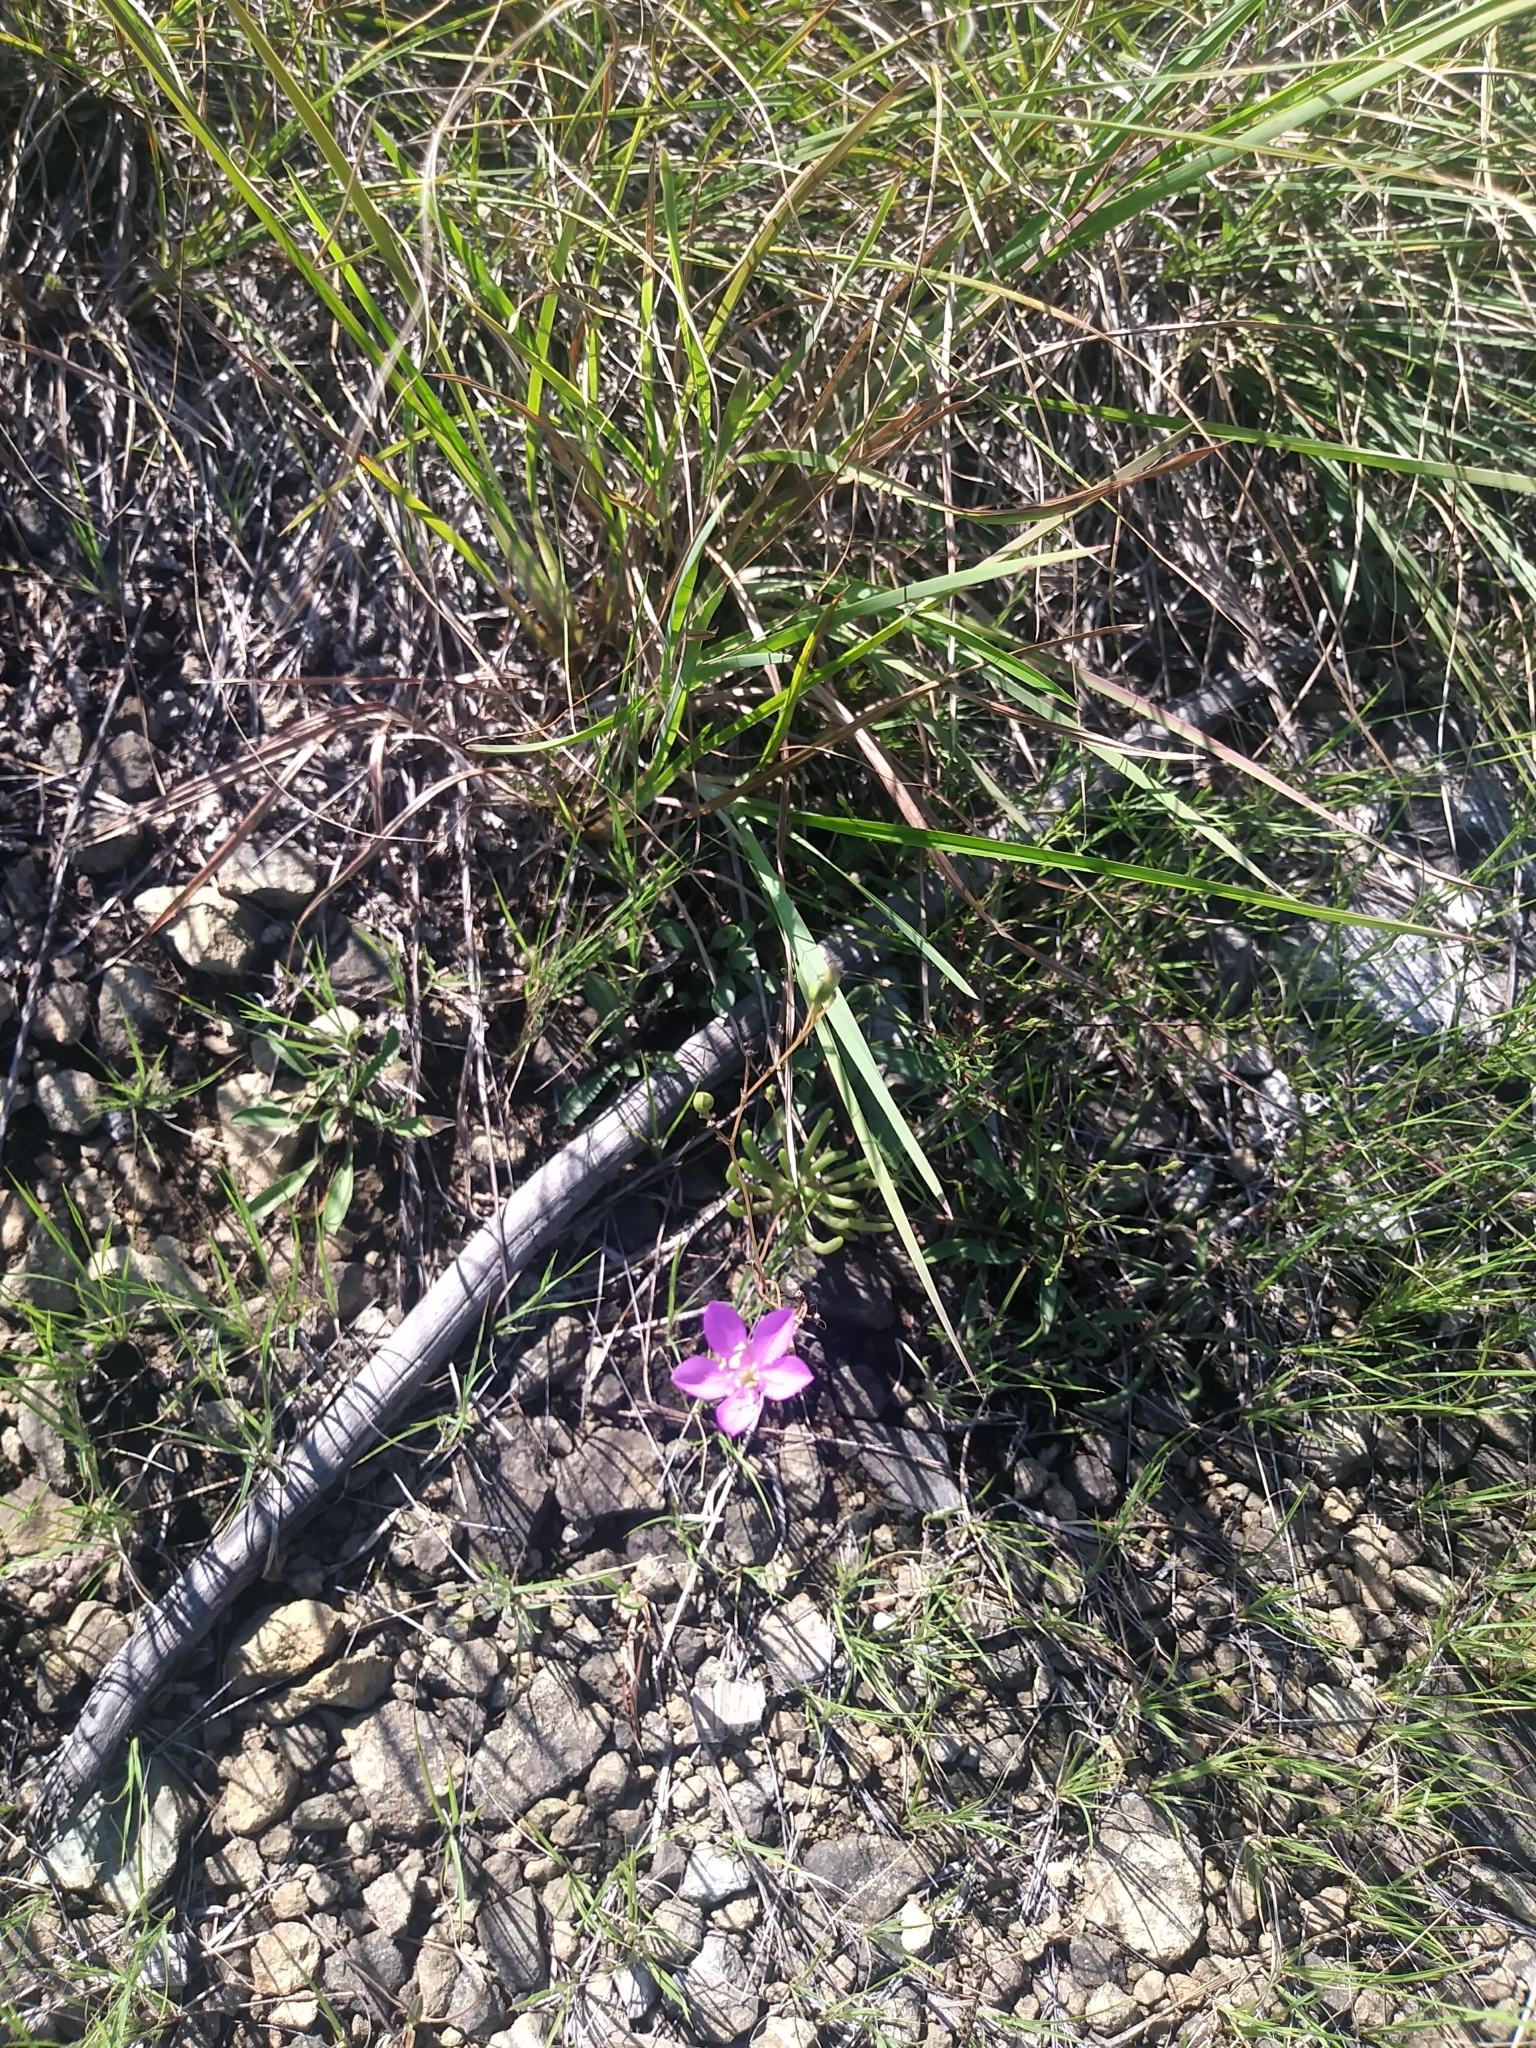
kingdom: Plantae
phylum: Tracheophyta
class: Magnoliopsida
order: Caryophyllales
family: Montiaceae
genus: Phemeranthus
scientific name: Phemeranthus teretifolius
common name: Quill fameflower
